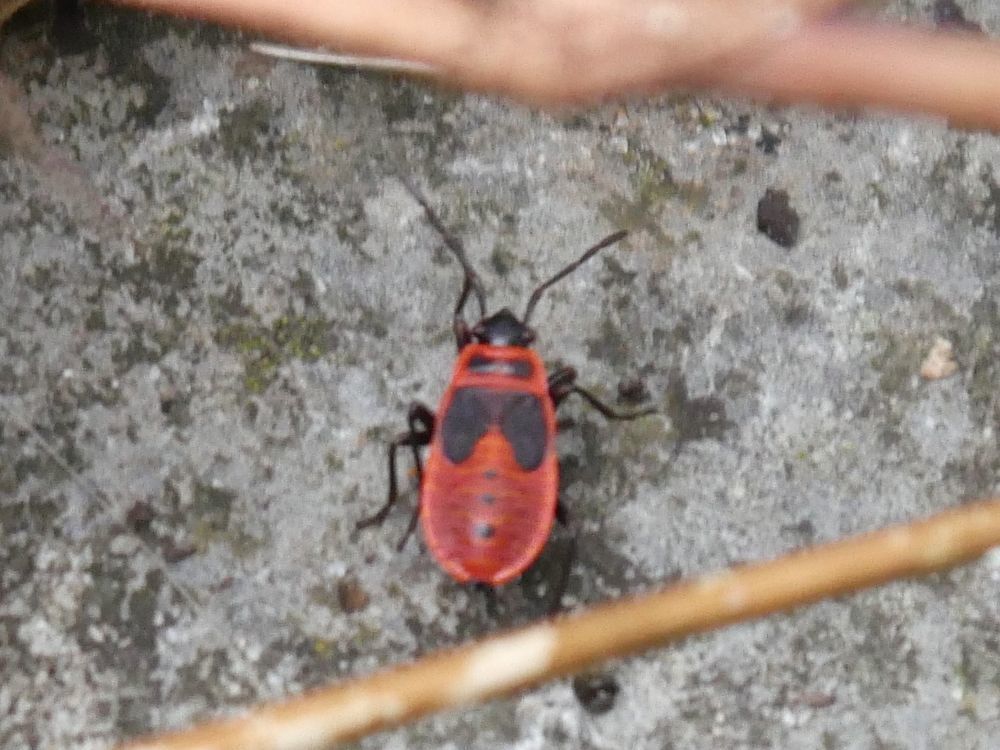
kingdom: Animalia
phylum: Arthropoda
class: Insecta
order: Hemiptera
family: Pyrrhocoridae
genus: Pyrrhocoris
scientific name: Pyrrhocoris apterus
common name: Firebug
